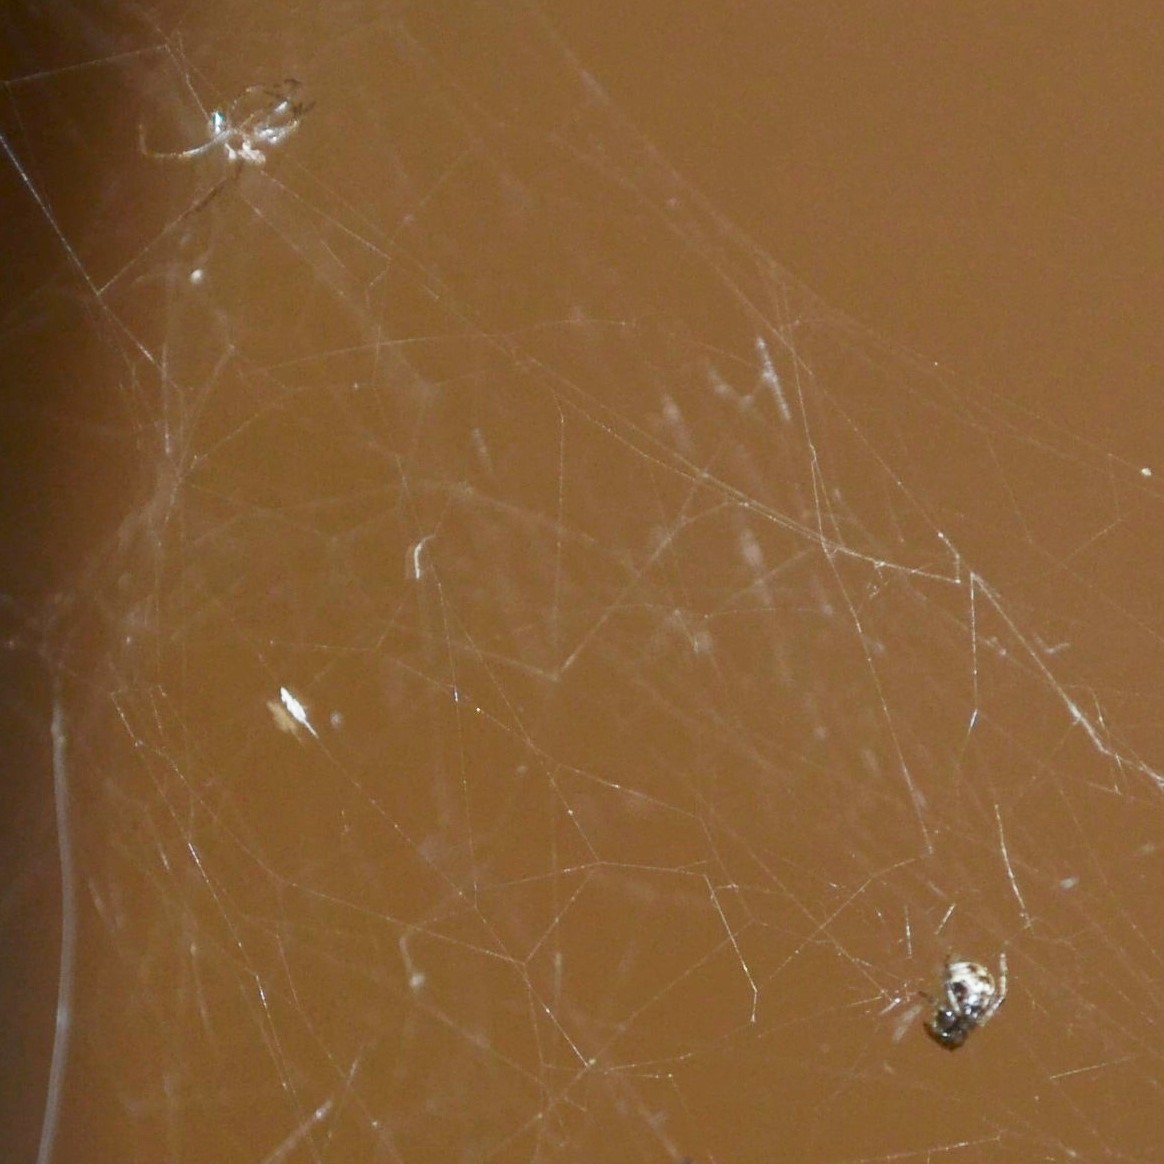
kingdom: Animalia
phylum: Arthropoda
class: Arachnida
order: Araneae
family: Theridiidae
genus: Parasteatoda
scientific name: Parasteatoda tepidariorum
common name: Common house spider
